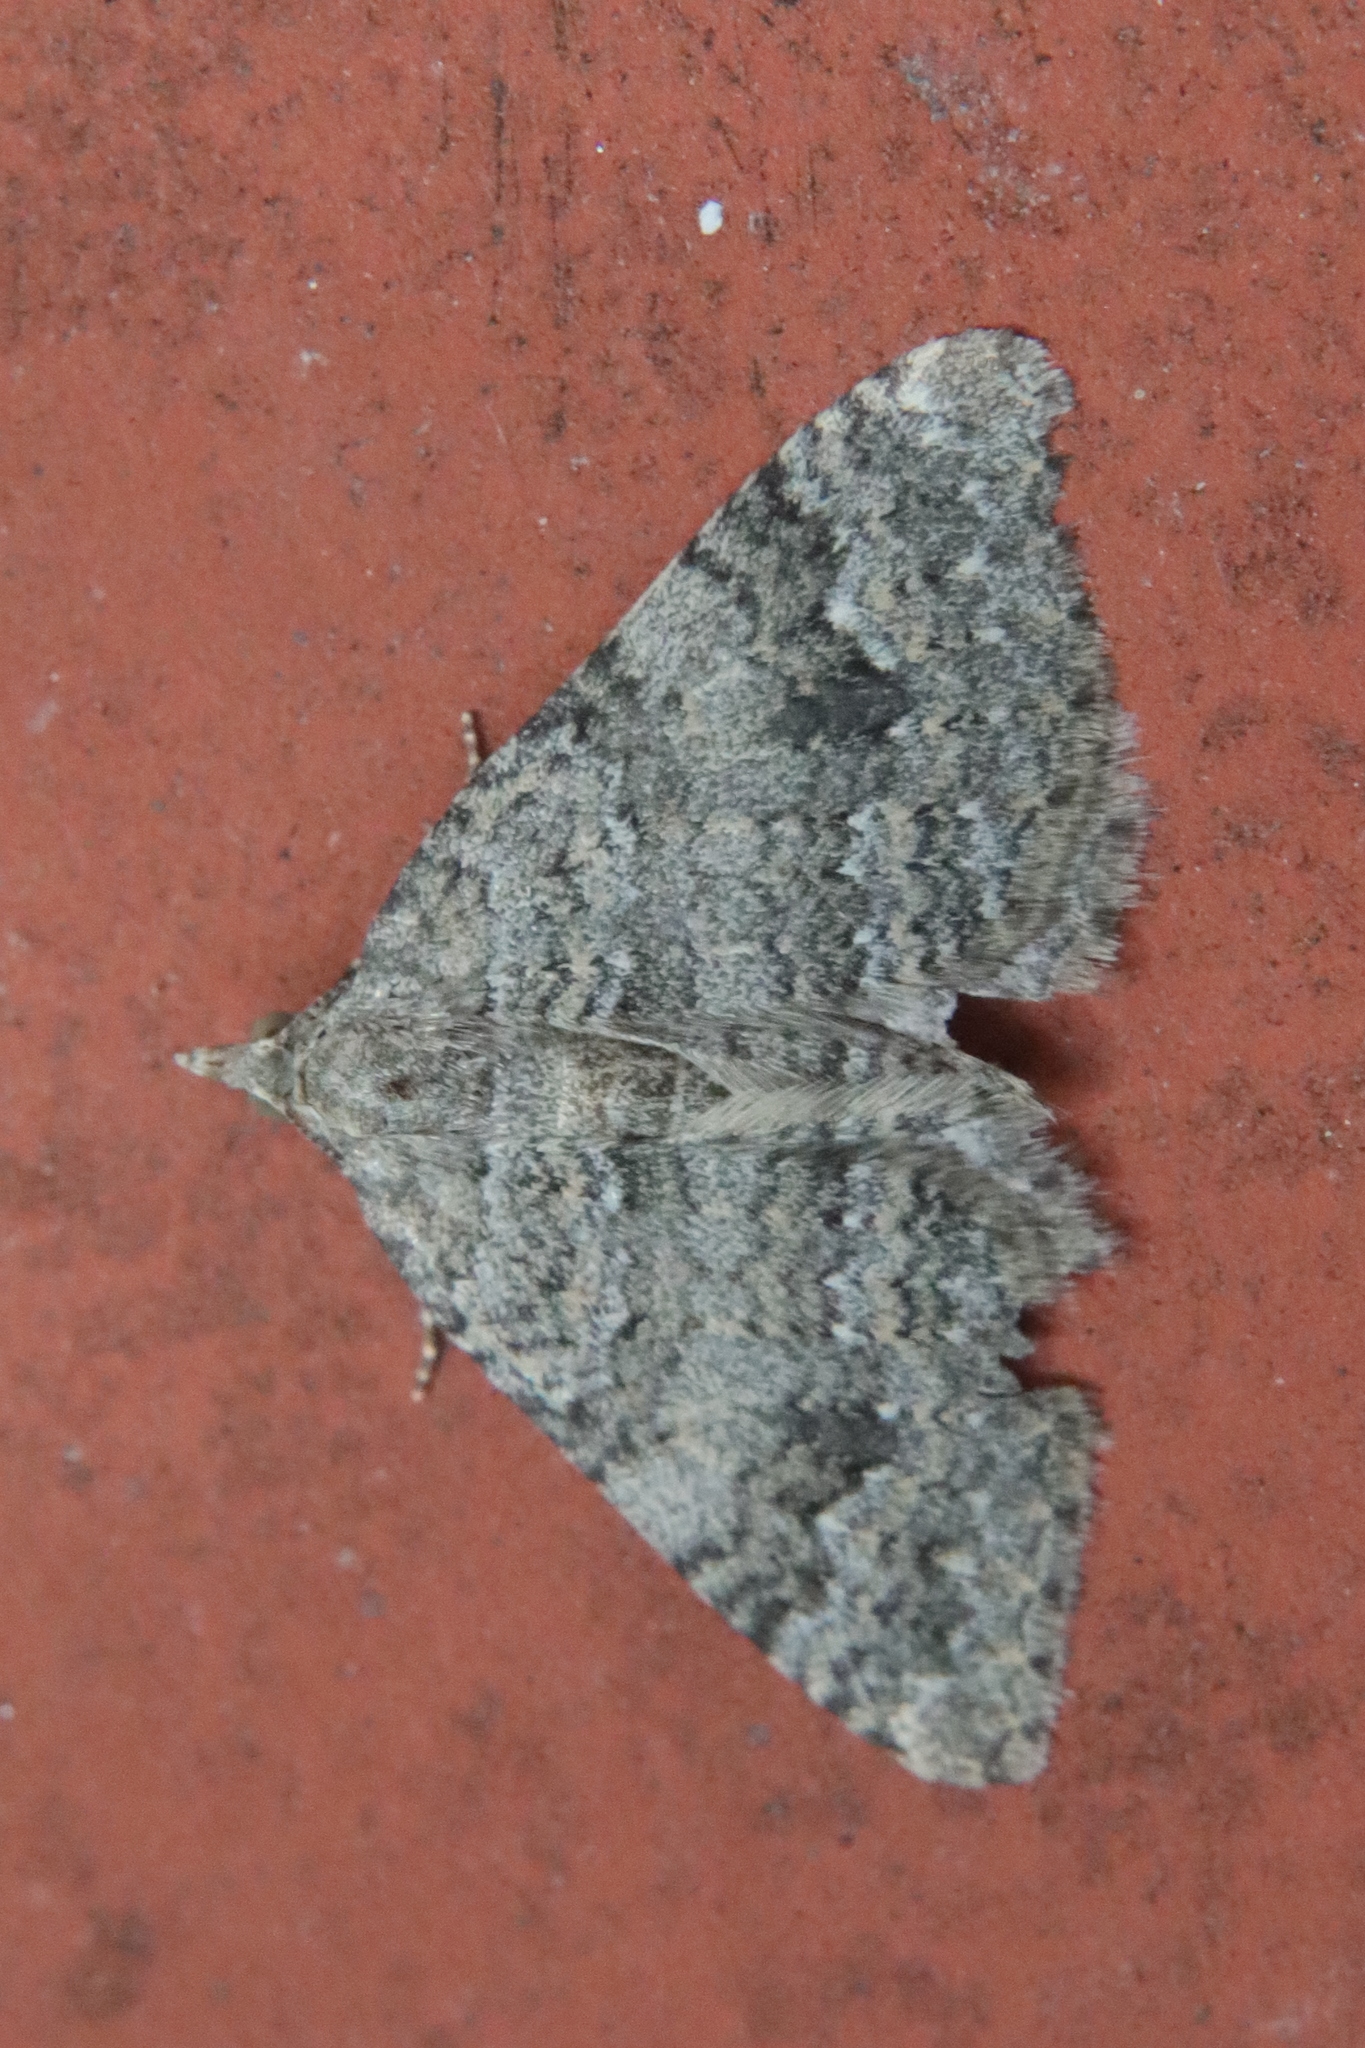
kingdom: Animalia
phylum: Arthropoda
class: Insecta
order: Lepidoptera
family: Geometridae
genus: Helastia
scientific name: Helastia cinerearia
